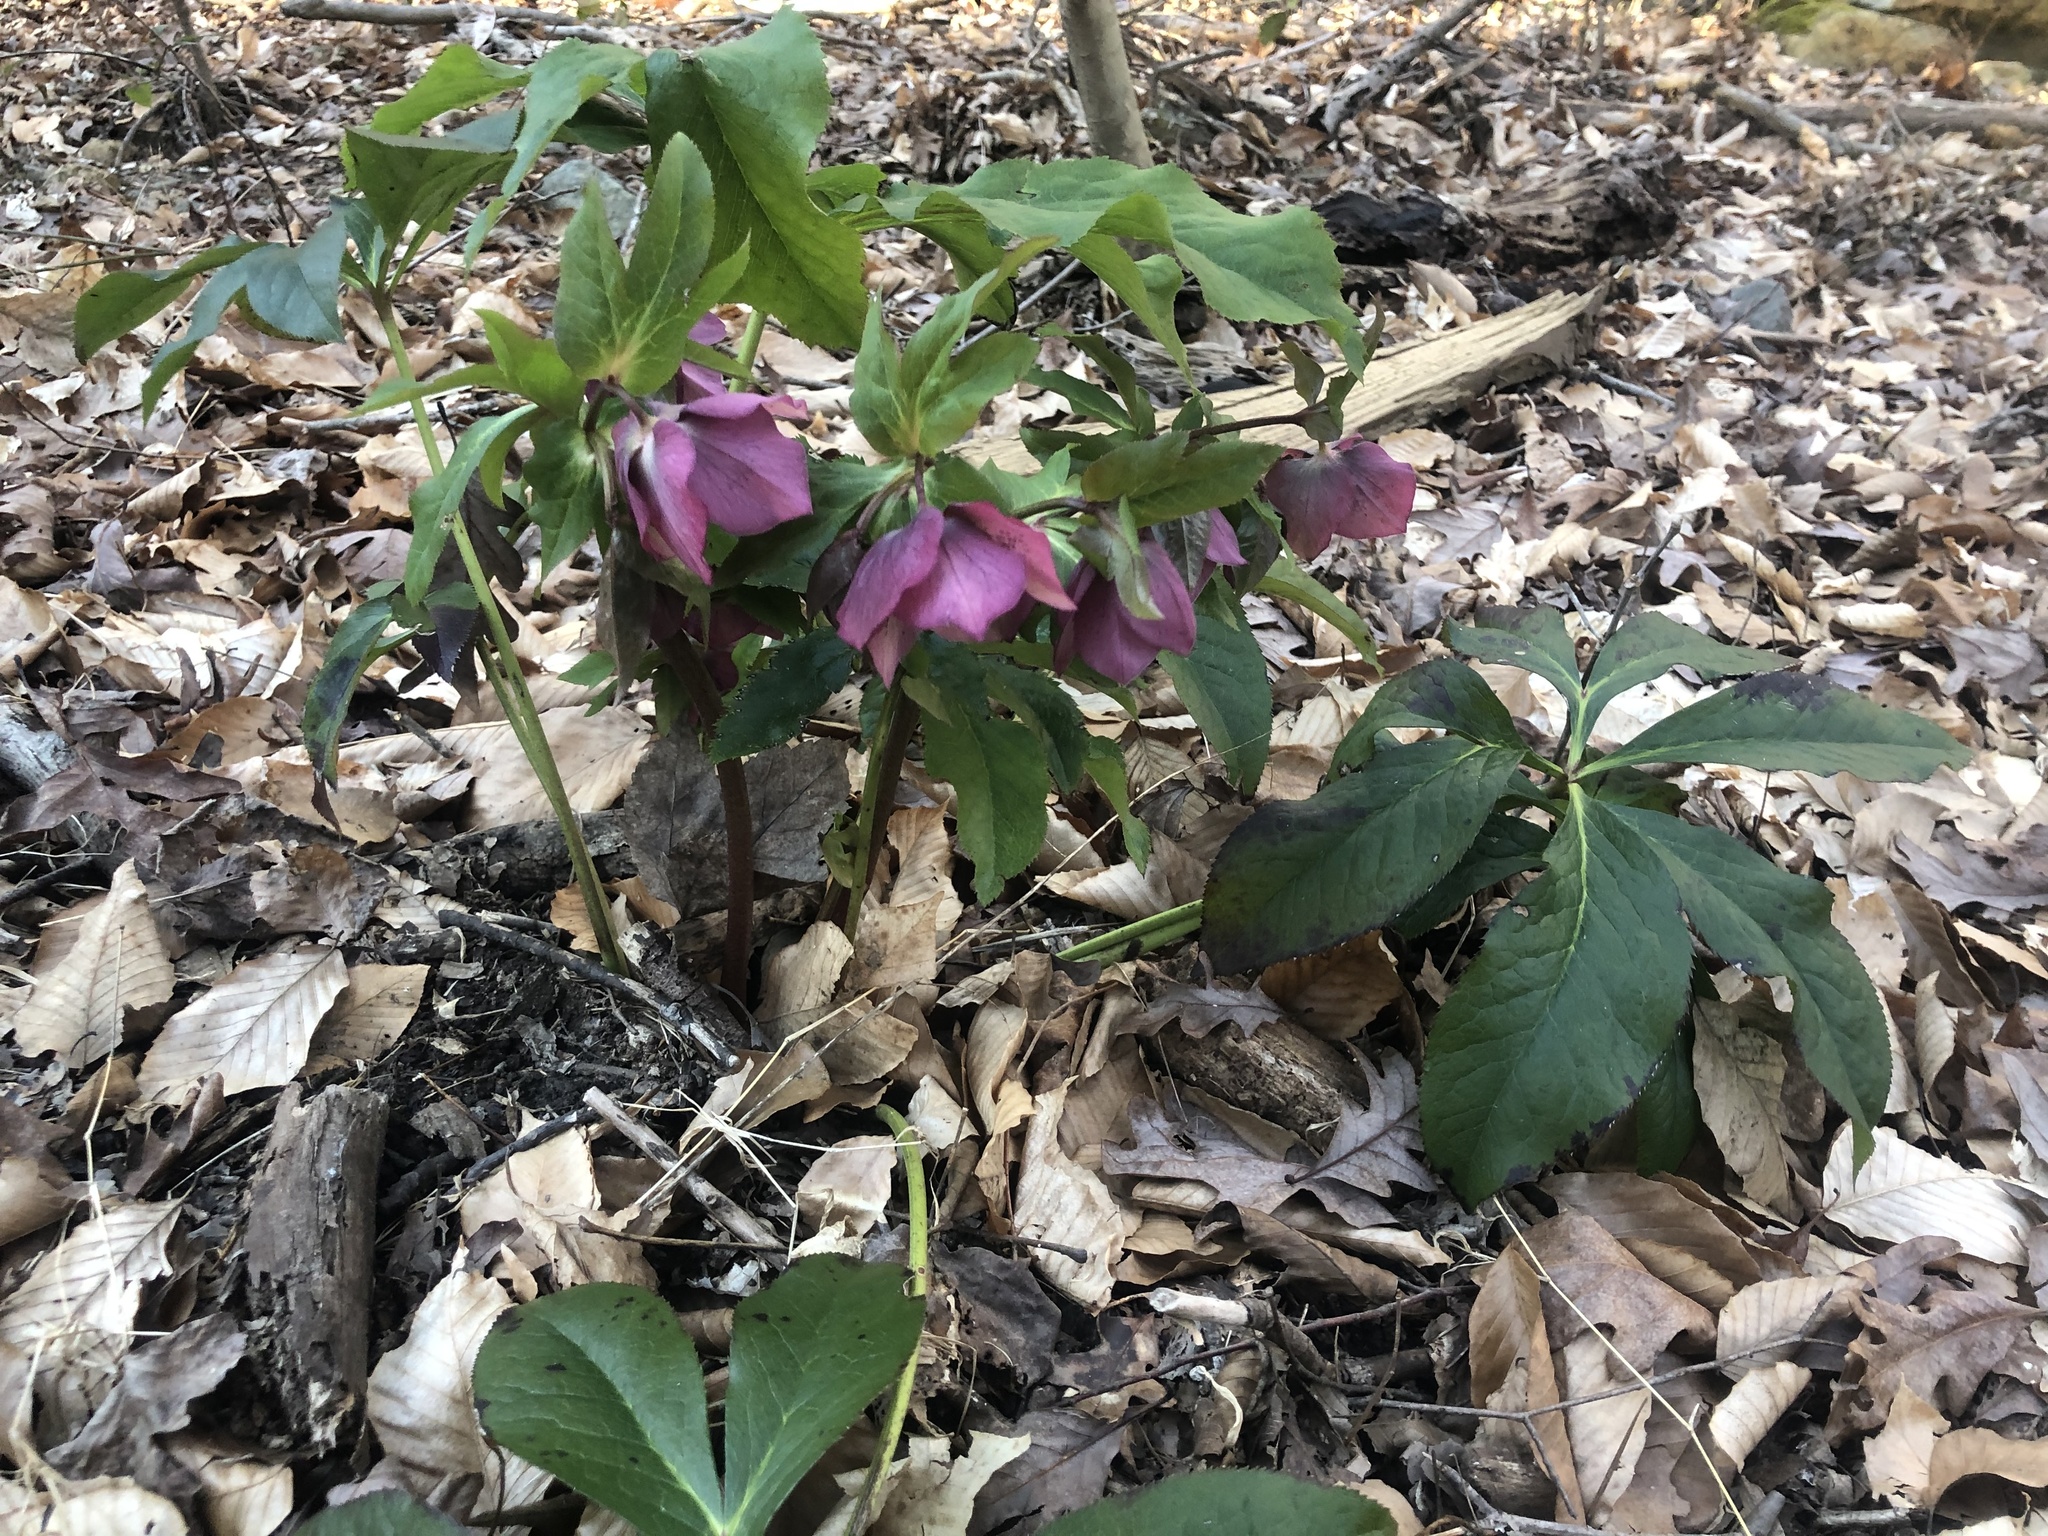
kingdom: Plantae
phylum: Tracheophyta
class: Magnoliopsida
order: Ranunculales
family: Ranunculaceae
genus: Helleborus
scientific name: Helleborus orientalis
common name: Lenten-rose
